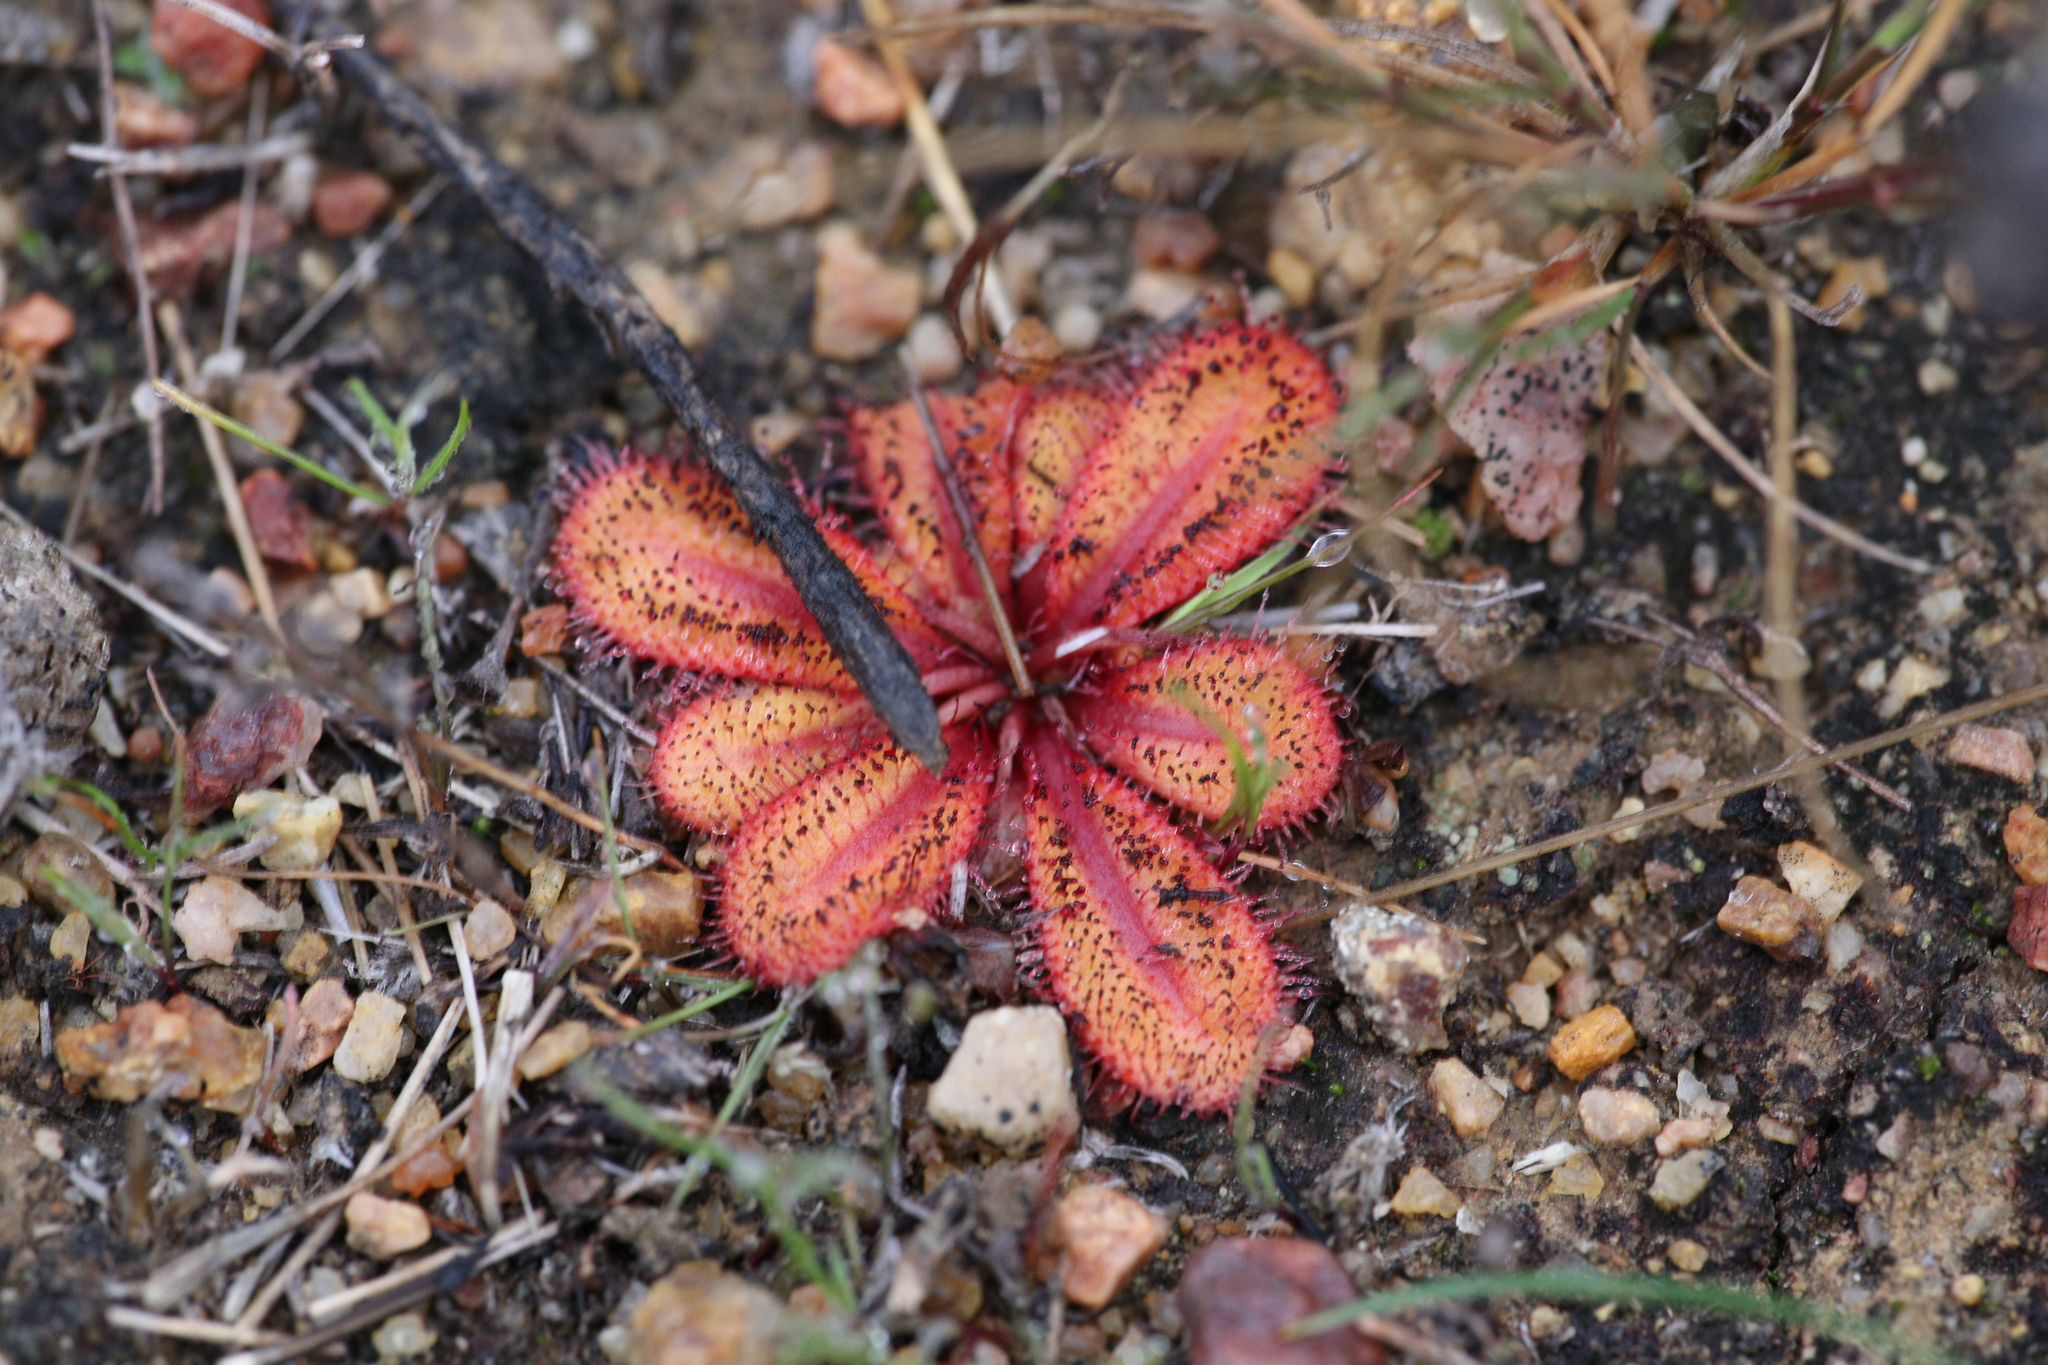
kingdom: Plantae
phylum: Tracheophyta
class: Magnoliopsida
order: Caryophyllales
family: Droseraceae
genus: Drosera
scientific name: Drosera bulbosa
